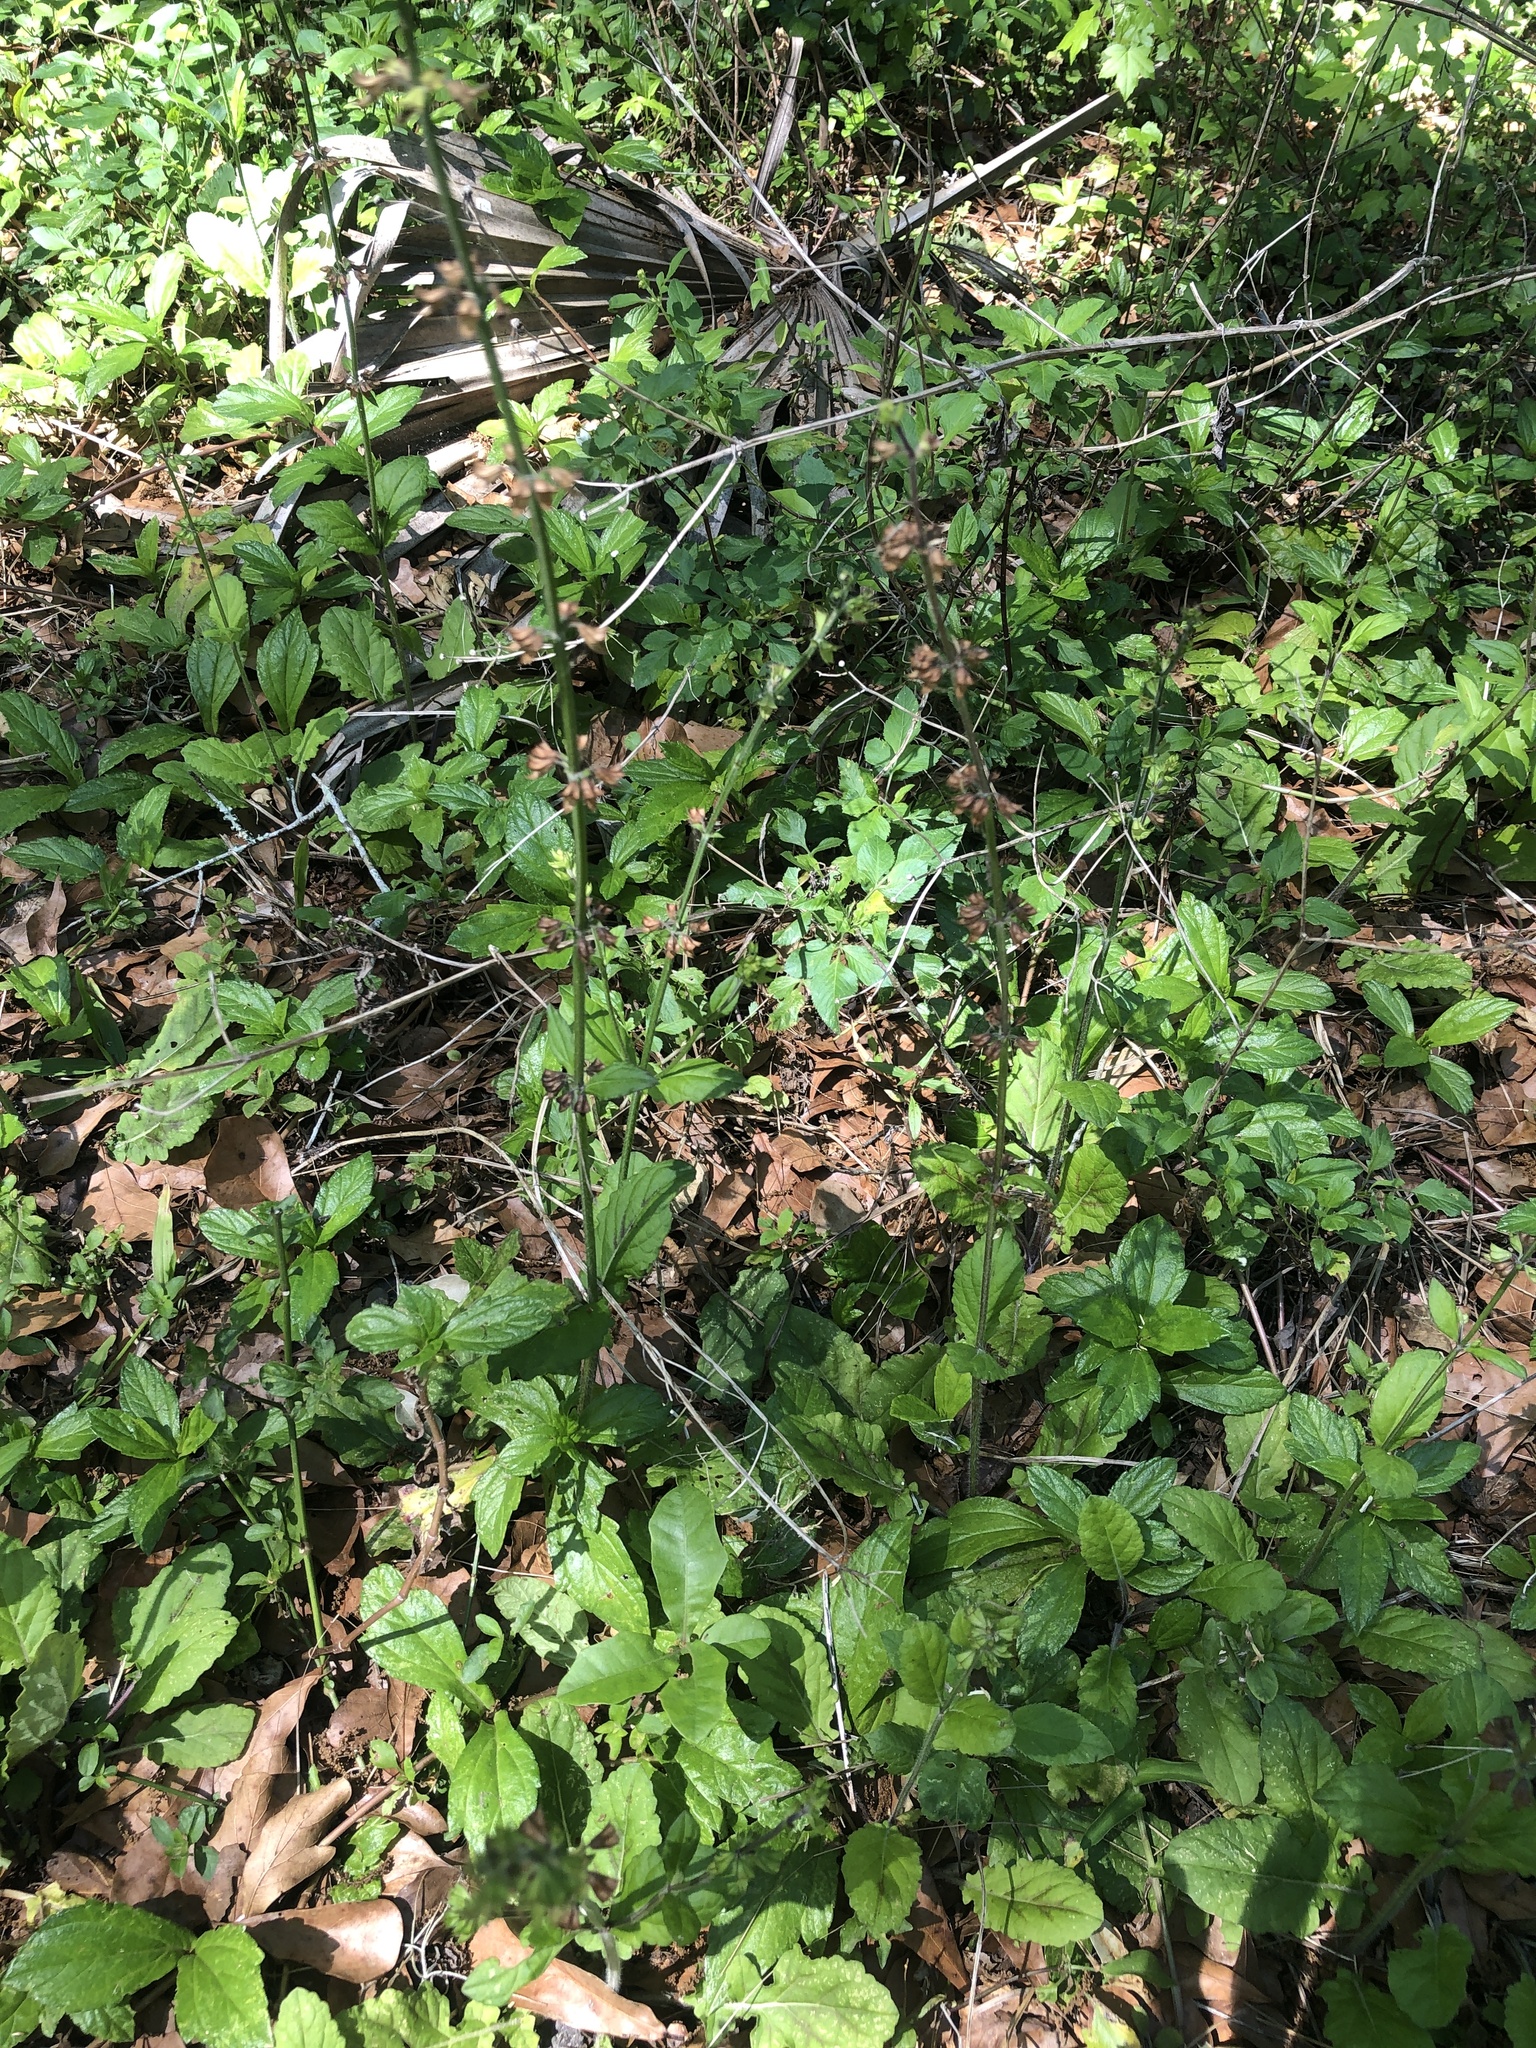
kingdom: Plantae
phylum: Tracheophyta
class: Magnoliopsida
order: Lamiales
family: Lamiaceae
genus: Salvia
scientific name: Salvia lyrata
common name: Cancerweed
